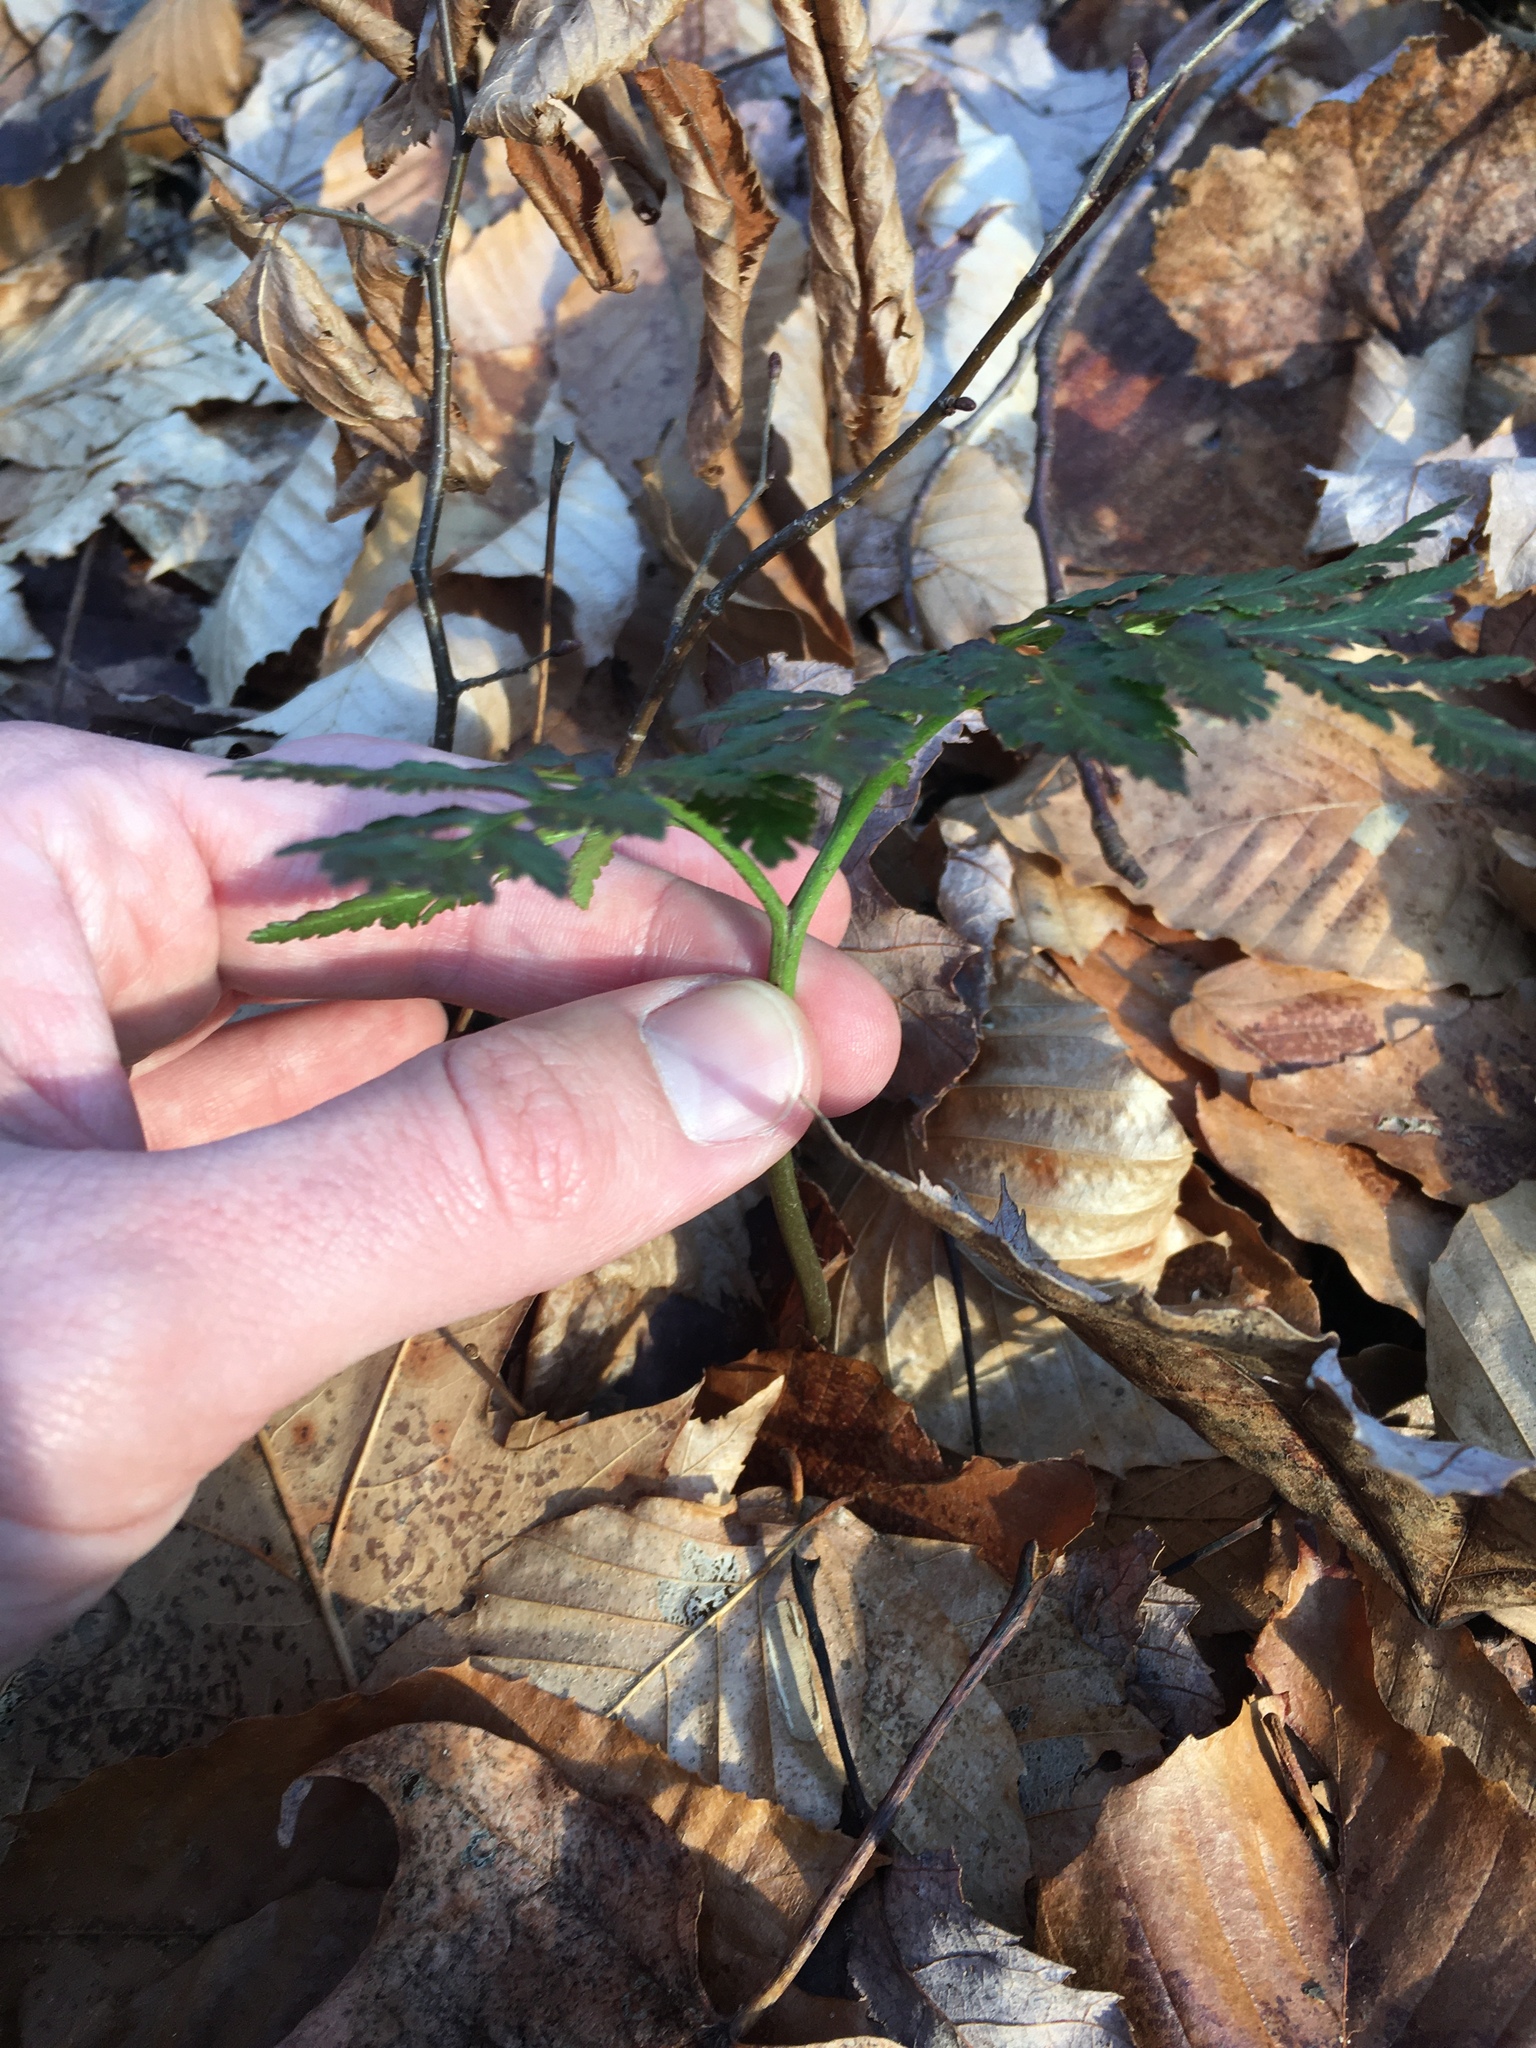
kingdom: Plantae
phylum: Tracheophyta
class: Polypodiopsida
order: Ophioglossales
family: Ophioglossaceae
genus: Sceptridium
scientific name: Sceptridium dissectum
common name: Cut-leaved grapefern
